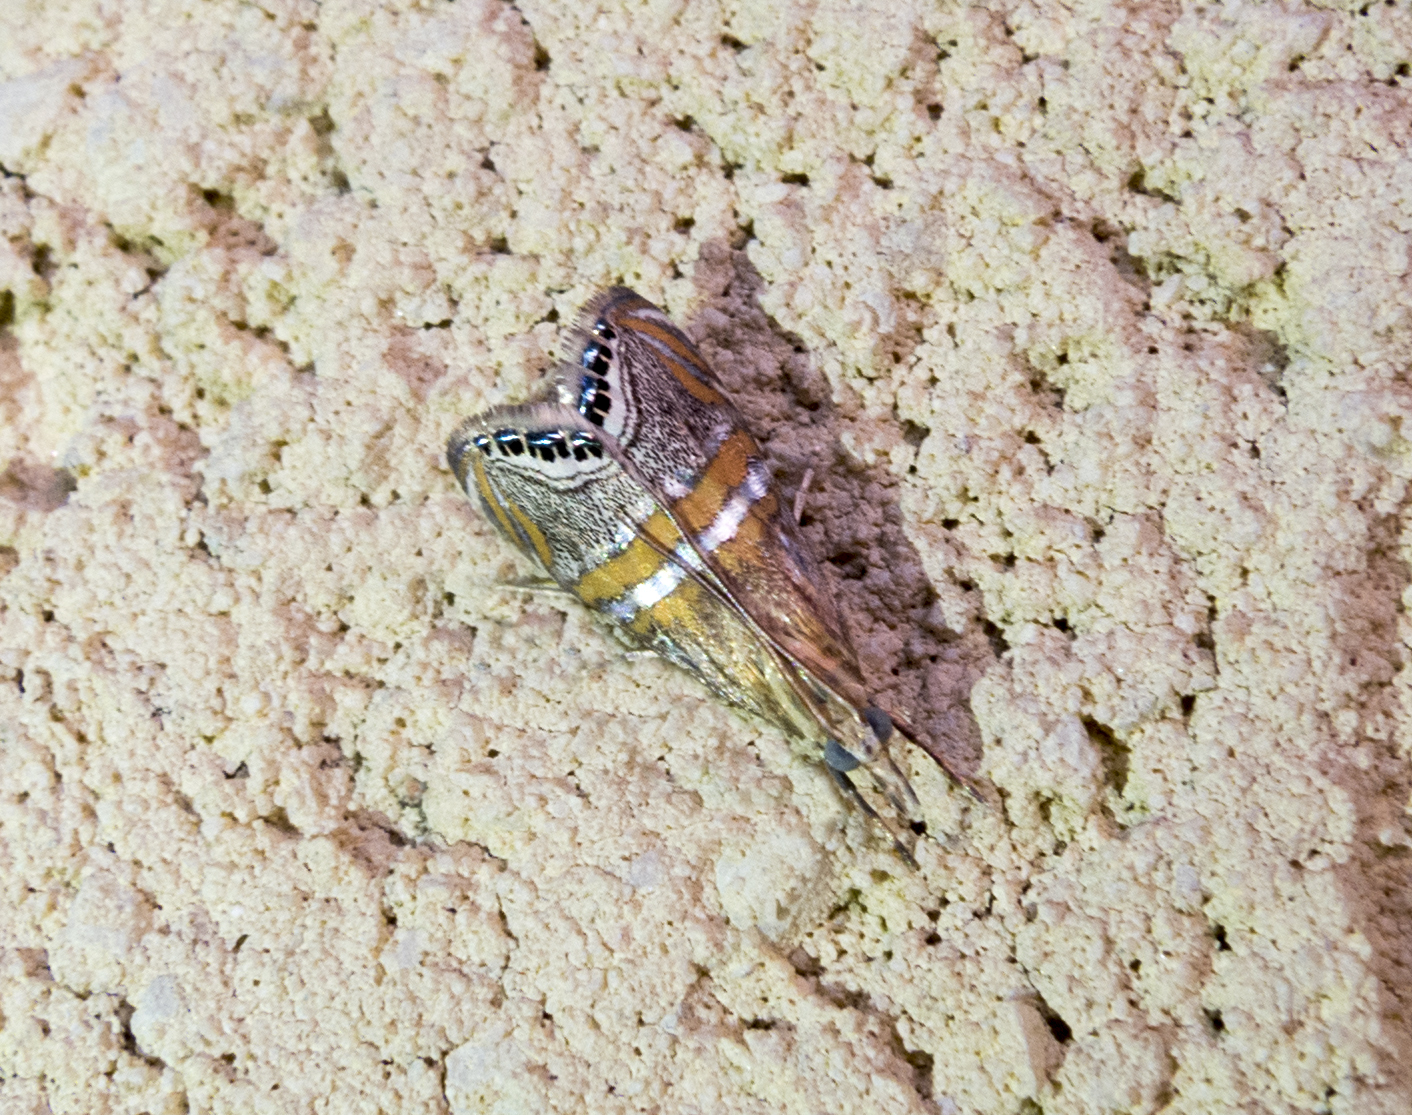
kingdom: Animalia
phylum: Arthropoda
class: Insecta
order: Lepidoptera
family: Crambidae
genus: Euchromius
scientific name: Euchromius bella
